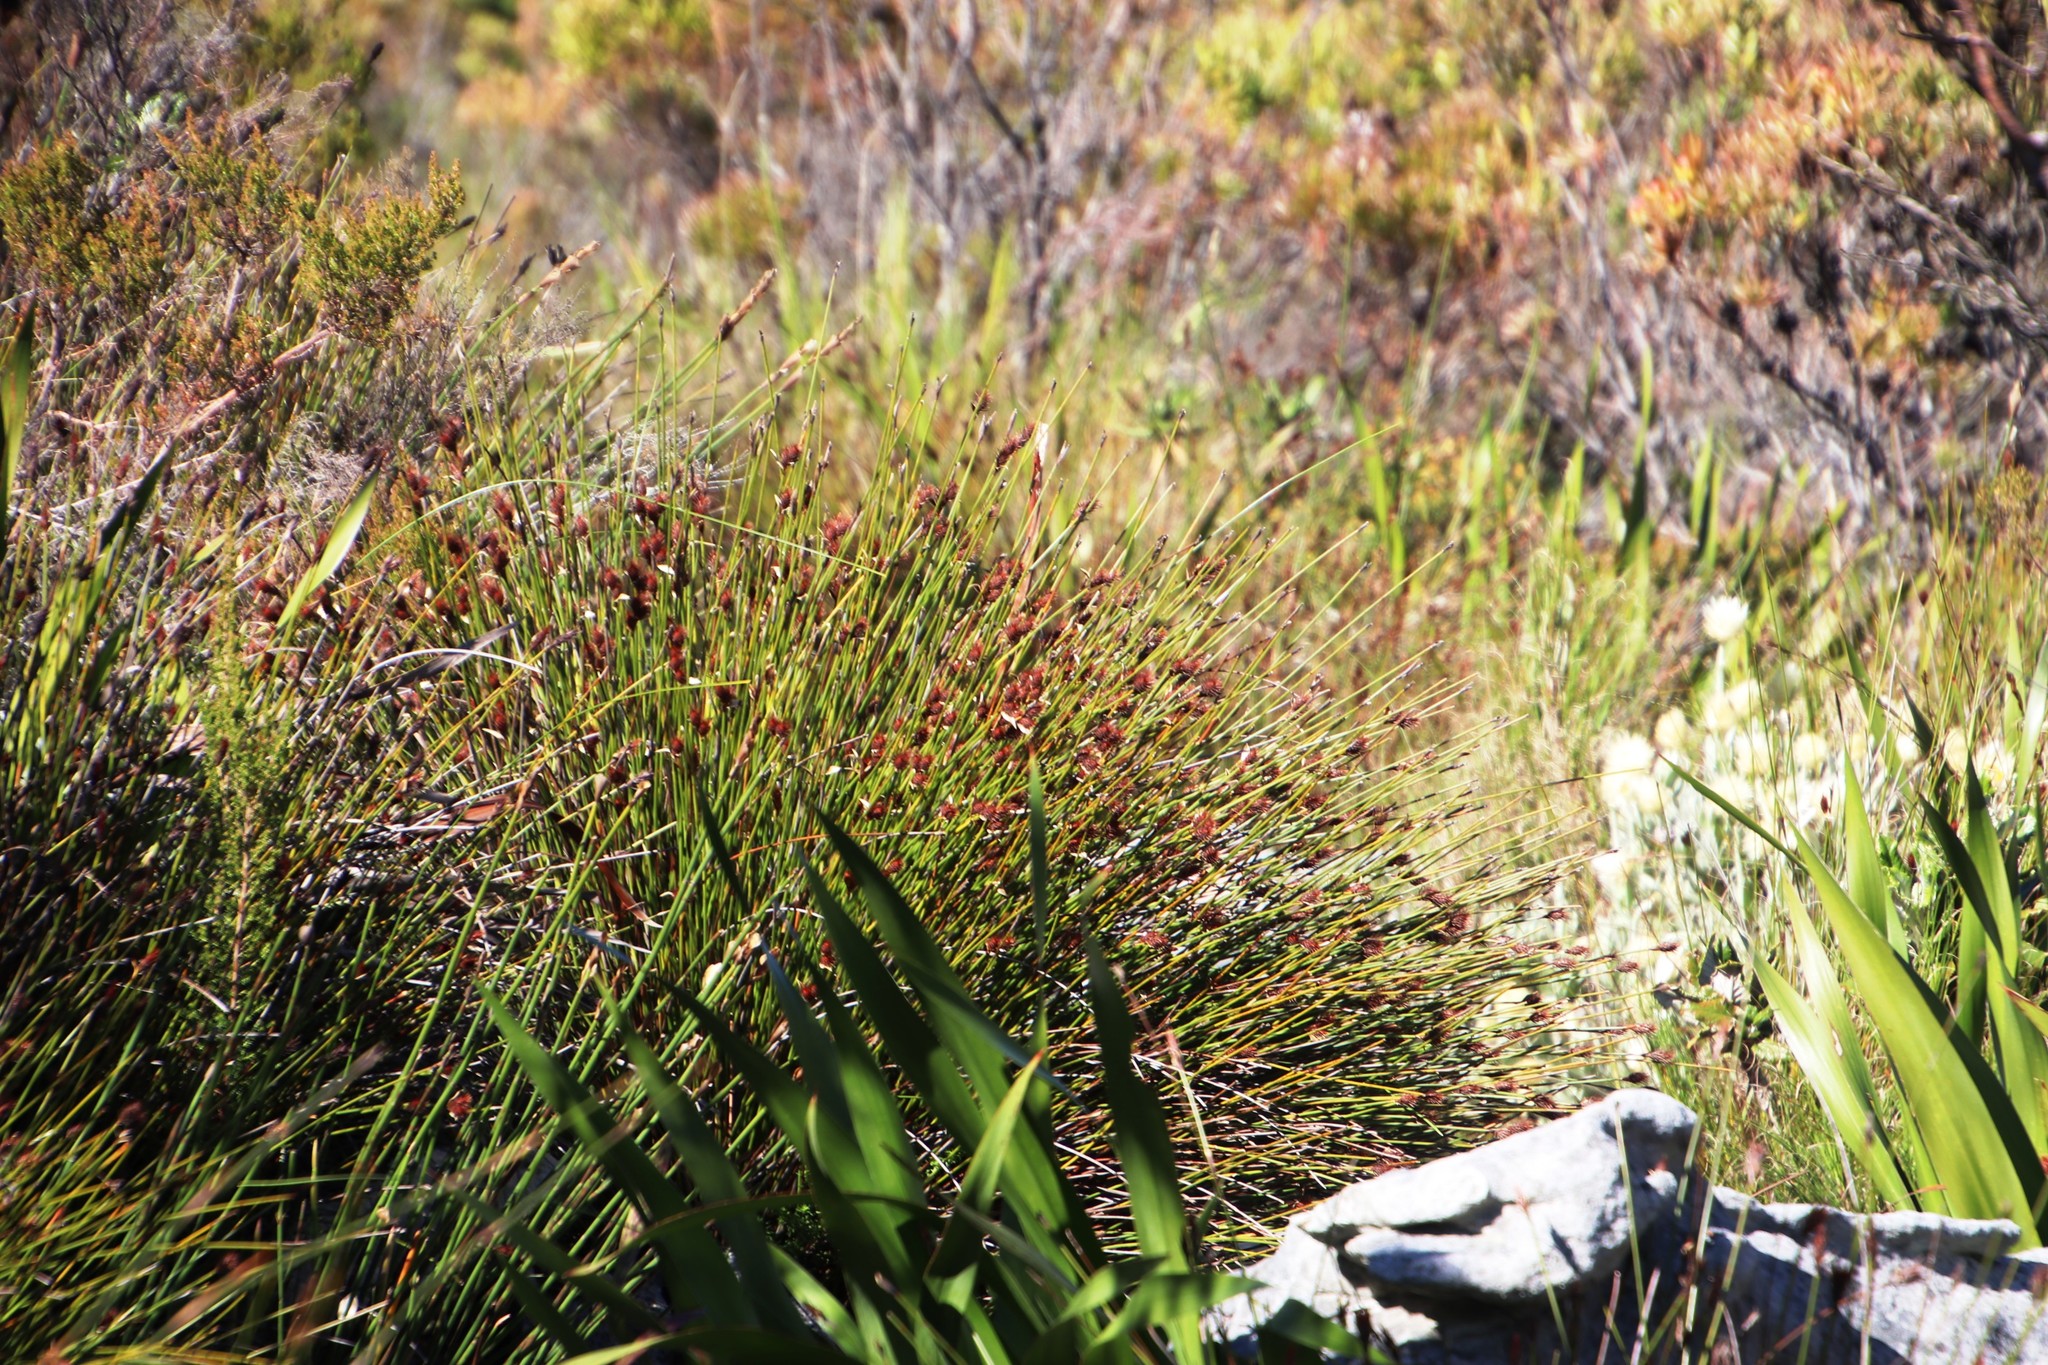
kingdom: Plantae
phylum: Tracheophyta
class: Liliopsida
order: Poales
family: Restionaceae
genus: Hypodiscus
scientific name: Hypodiscus aristatus
